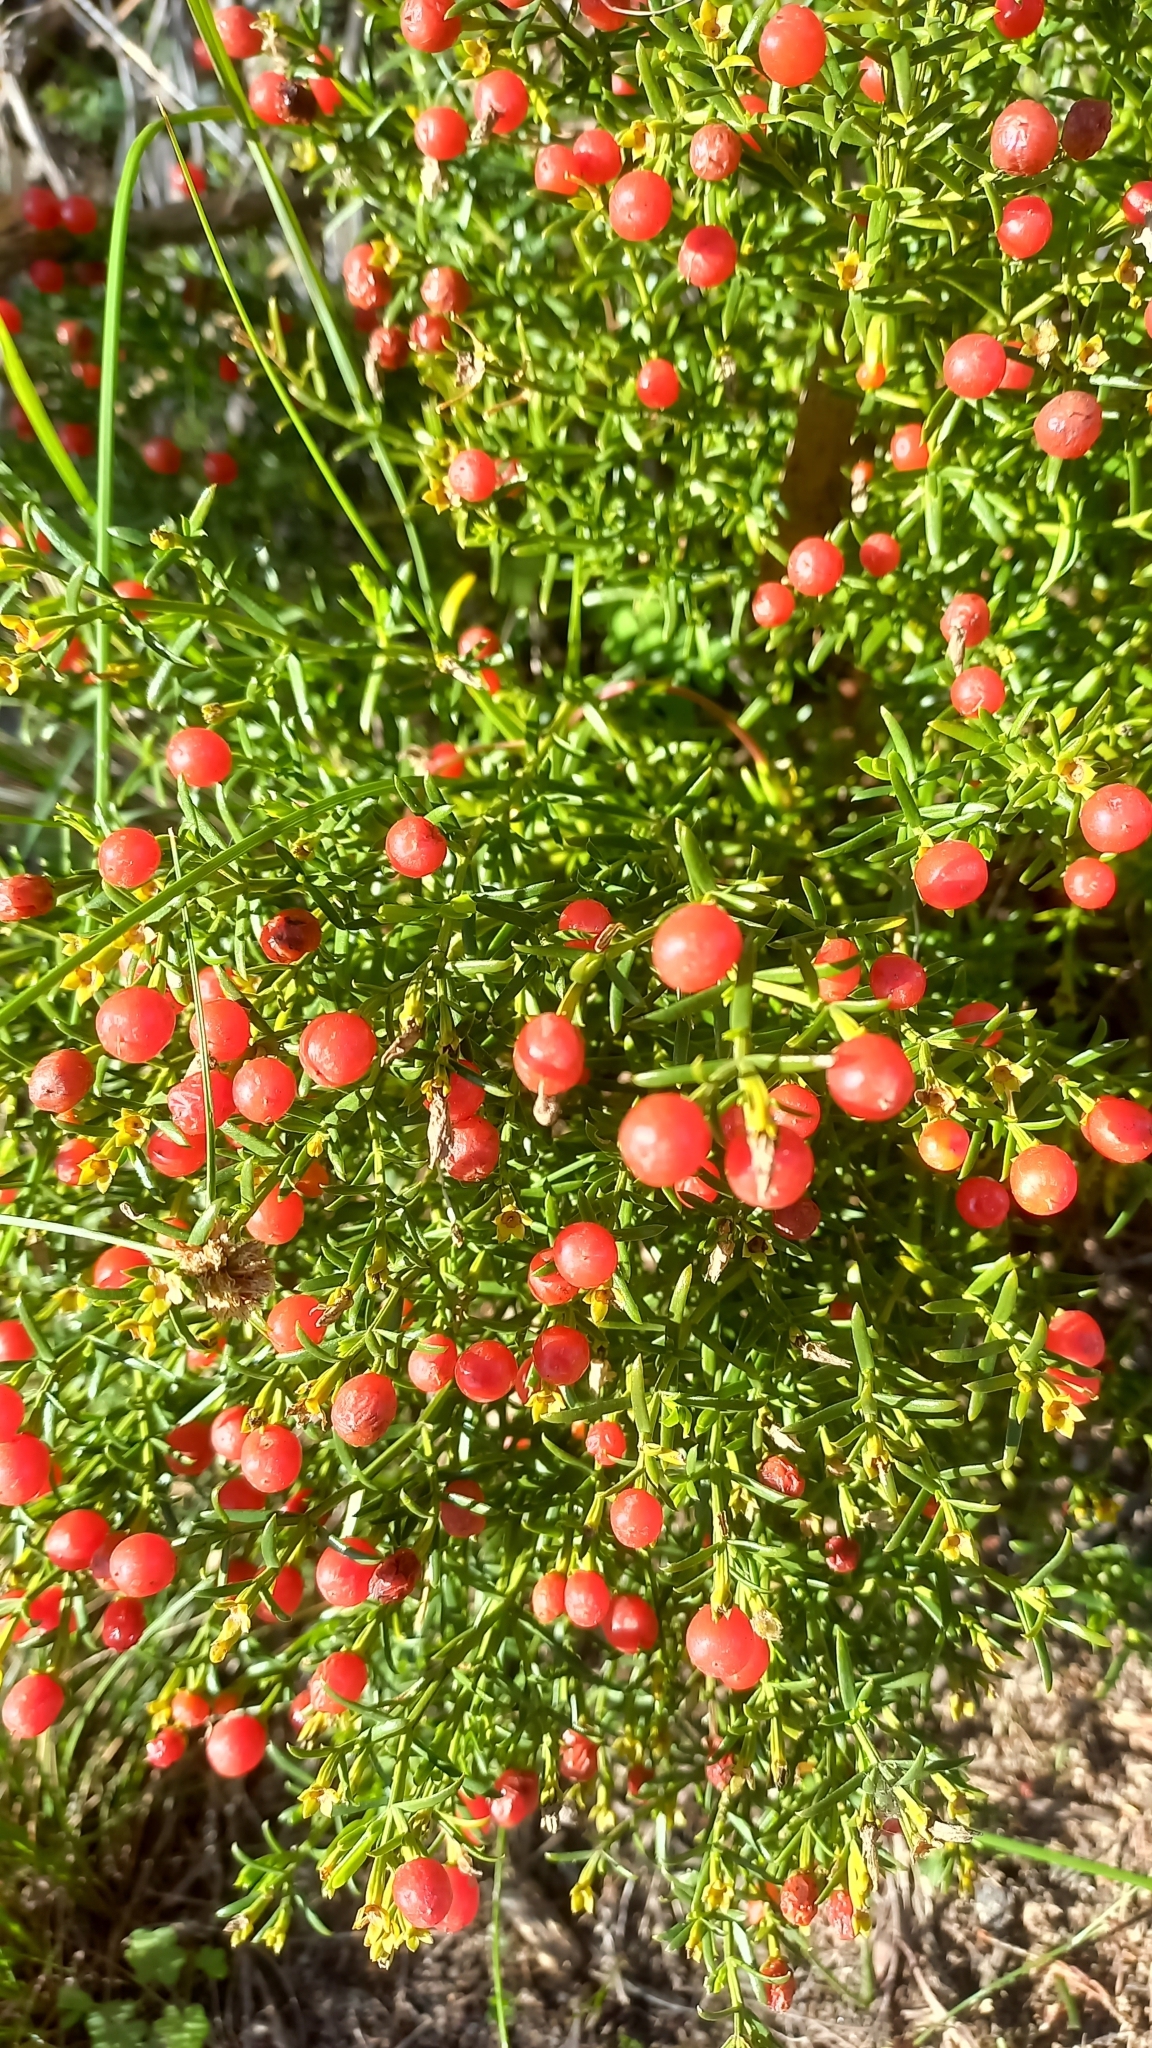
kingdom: Plantae
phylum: Tracheophyta
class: Magnoliopsida
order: Gentianales
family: Gentianaceae
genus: Chironia
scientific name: Chironia baccifera
